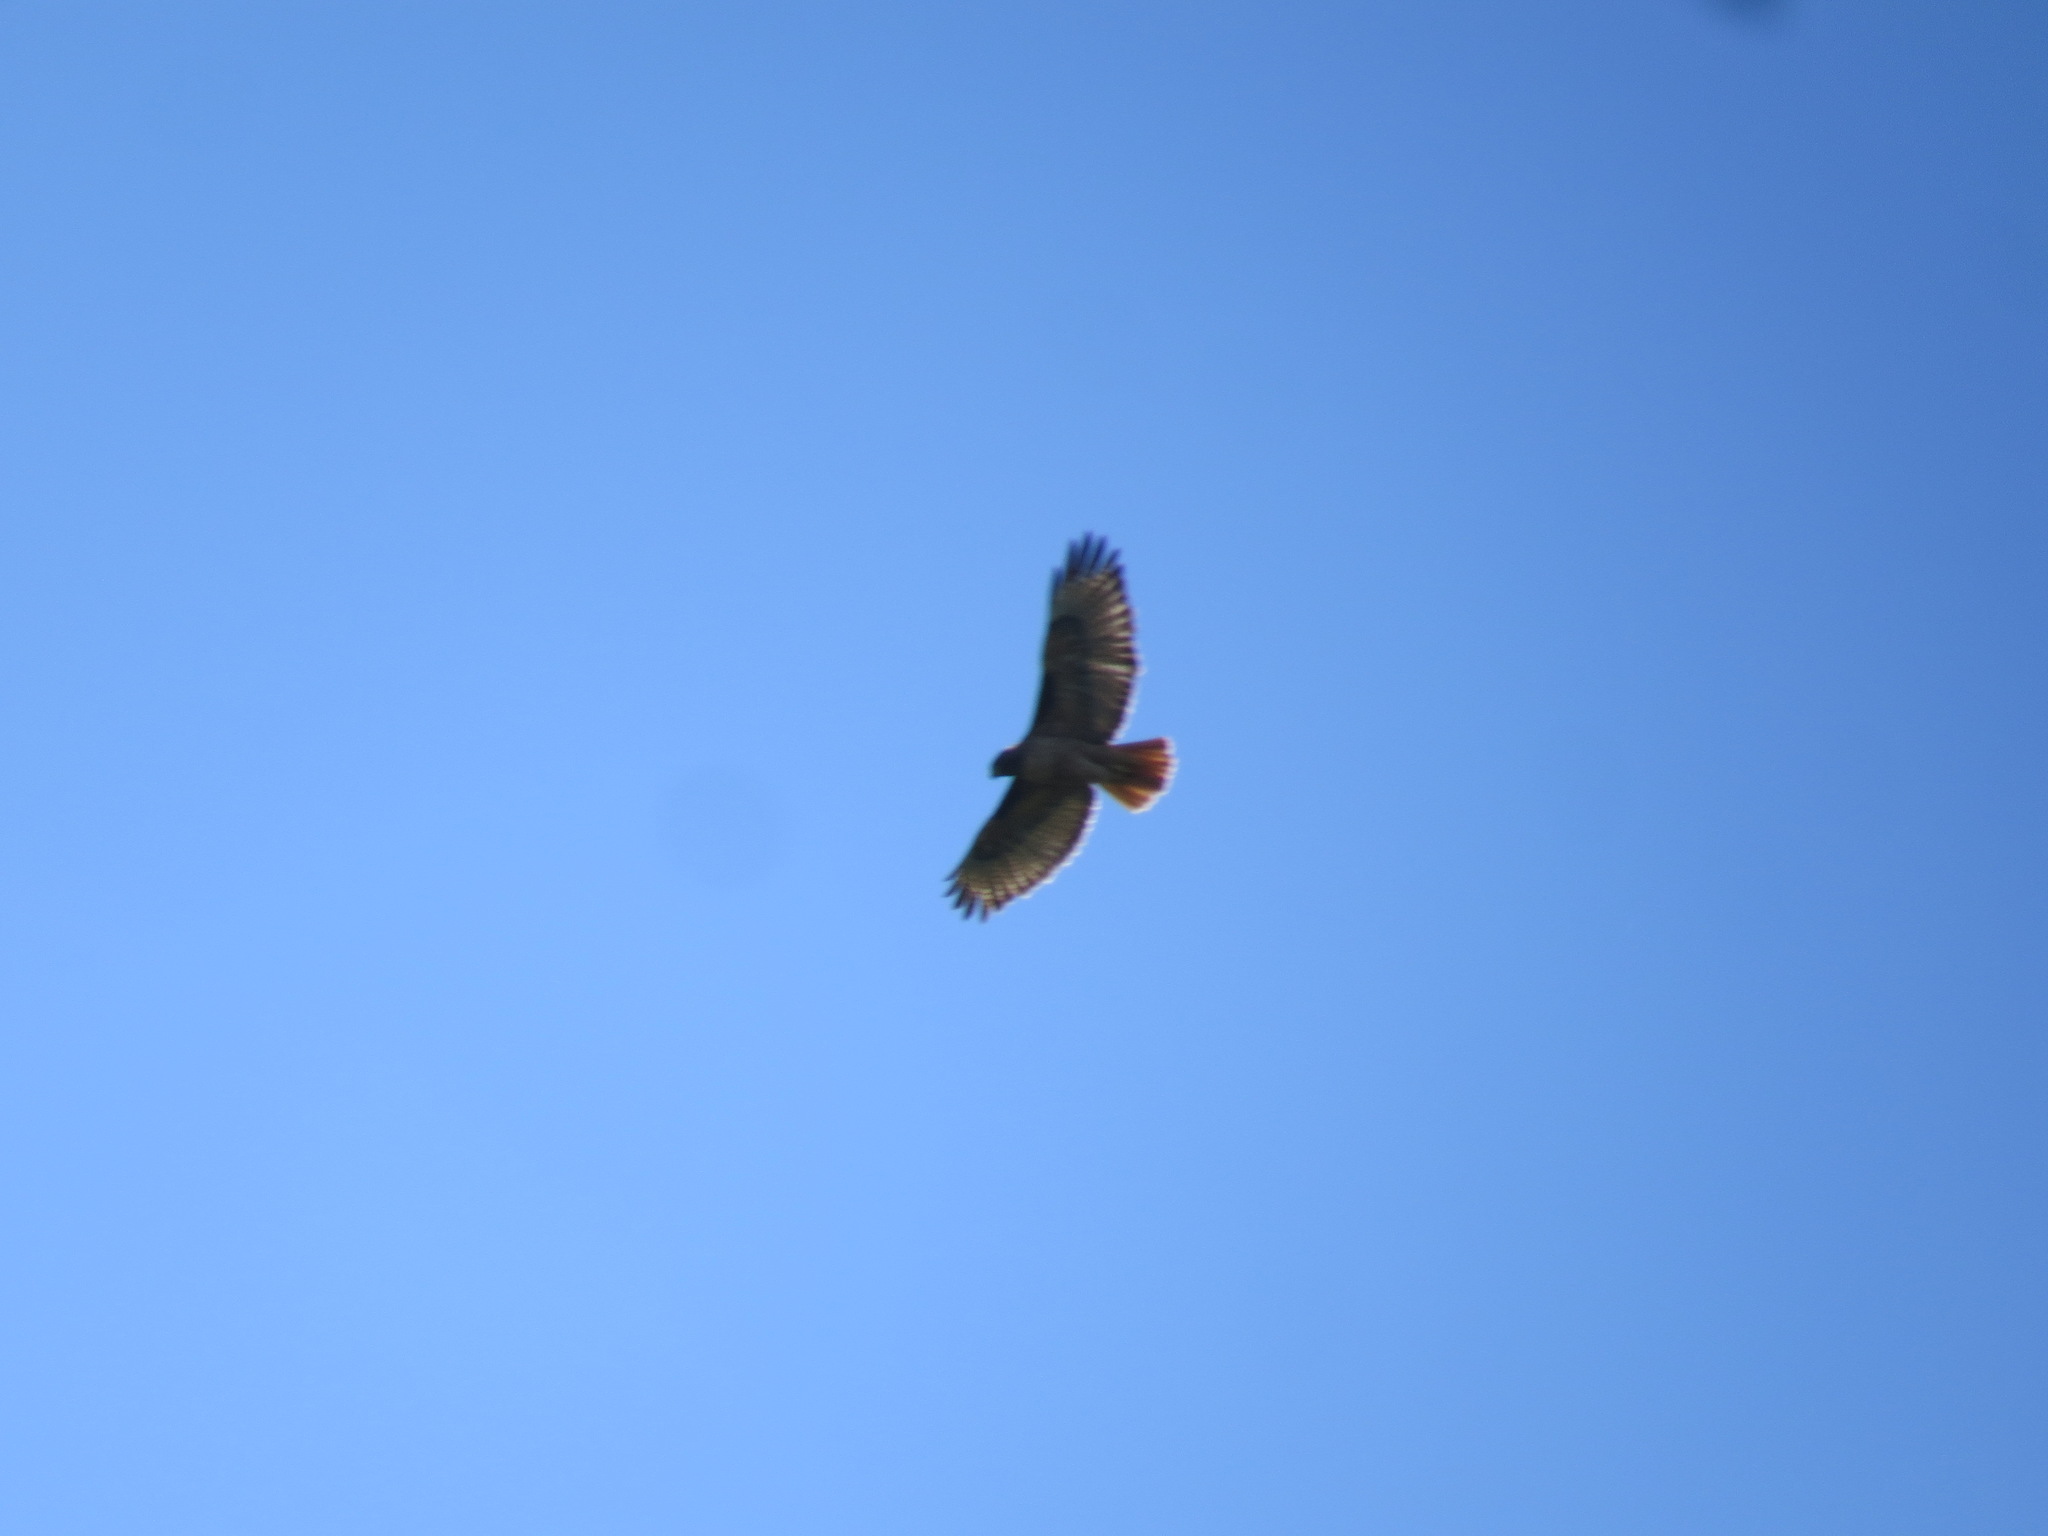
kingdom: Animalia
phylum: Chordata
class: Aves
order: Accipitriformes
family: Accipitridae
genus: Buteo
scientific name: Buteo jamaicensis
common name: Red-tailed hawk
